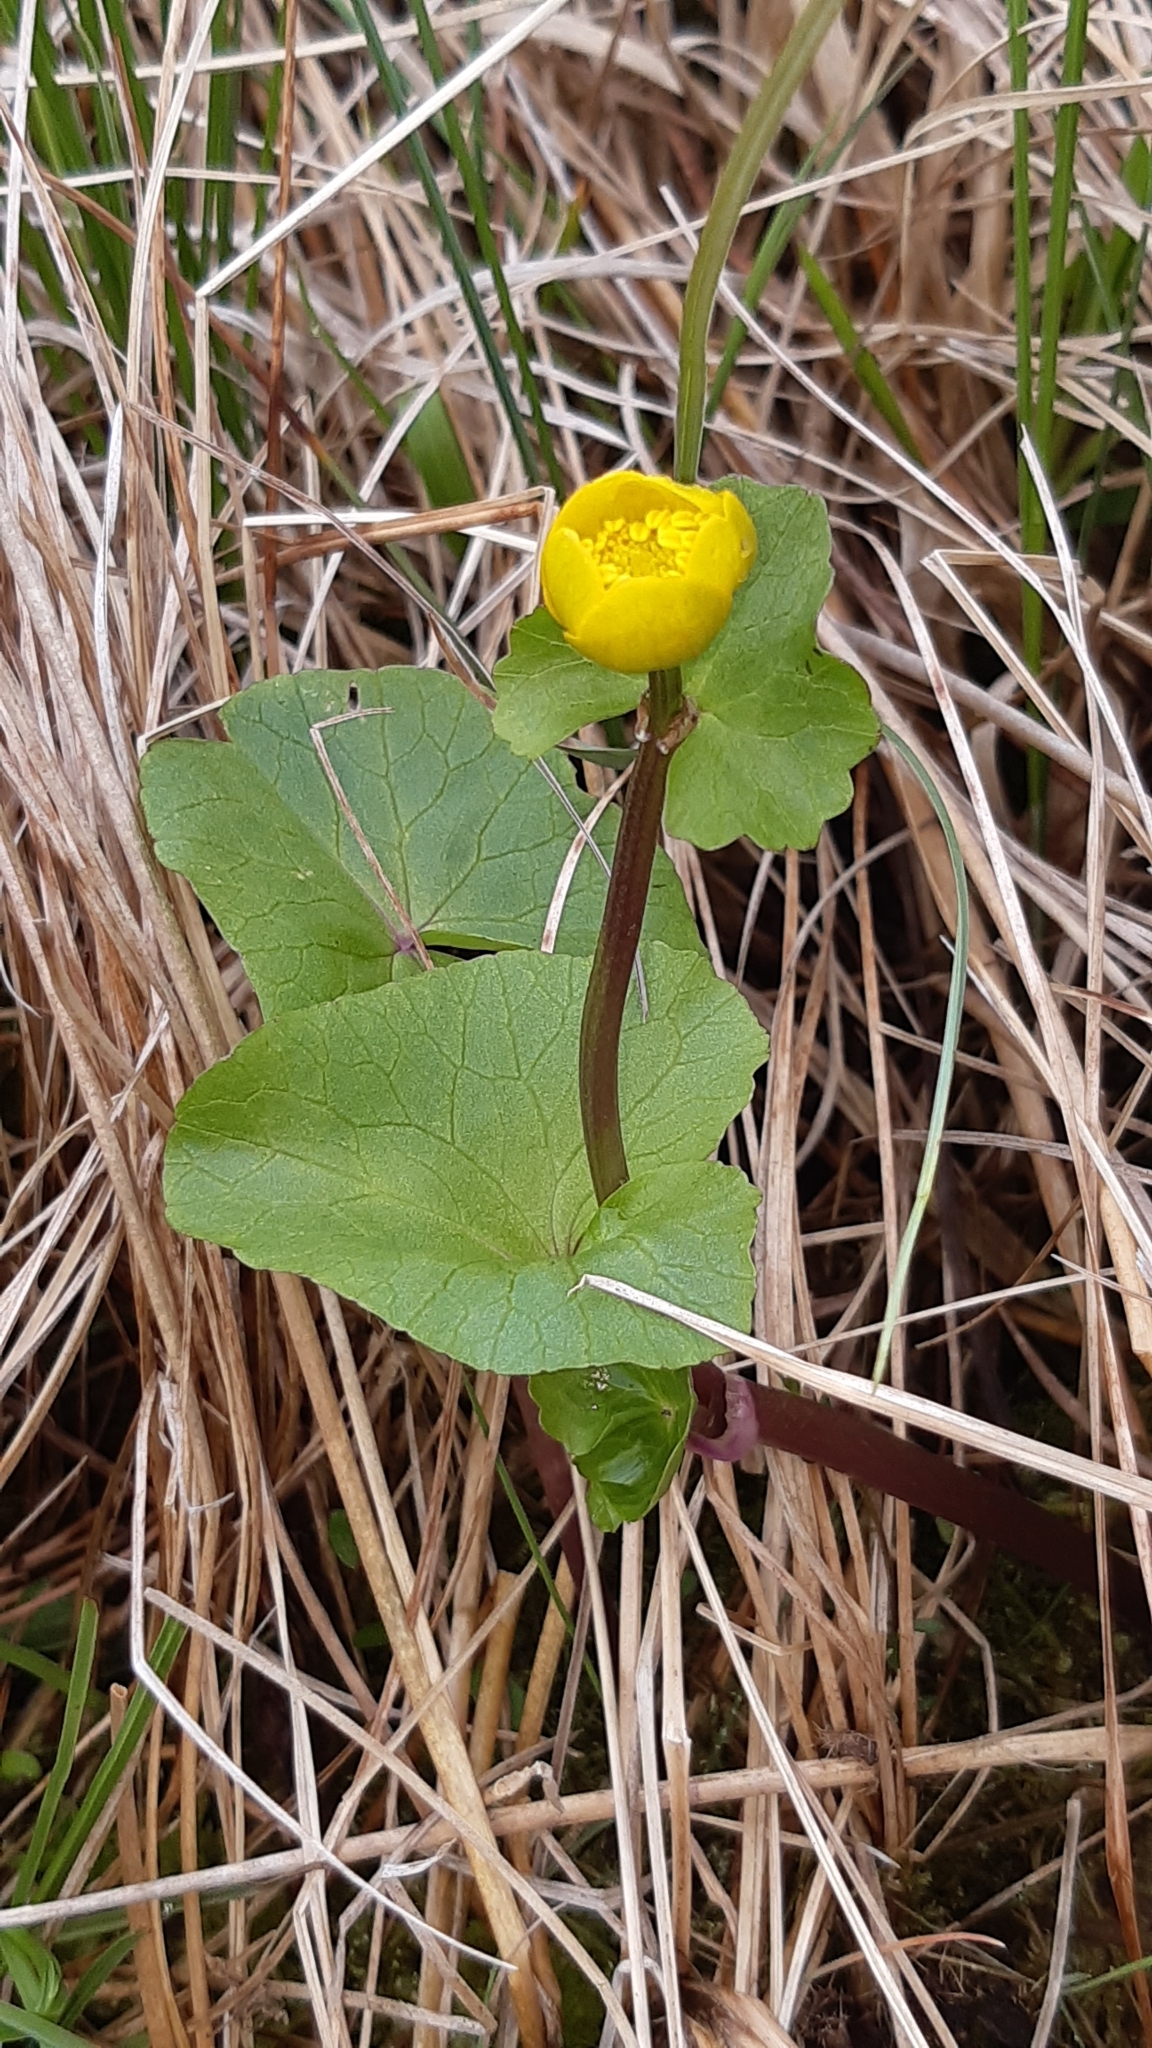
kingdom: Plantae
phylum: Tracheophyta
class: Magnoliopsida
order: Ranunculales
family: Ranunculaceae
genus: Caltha
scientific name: Caltha palustris
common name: Marsh marigold
